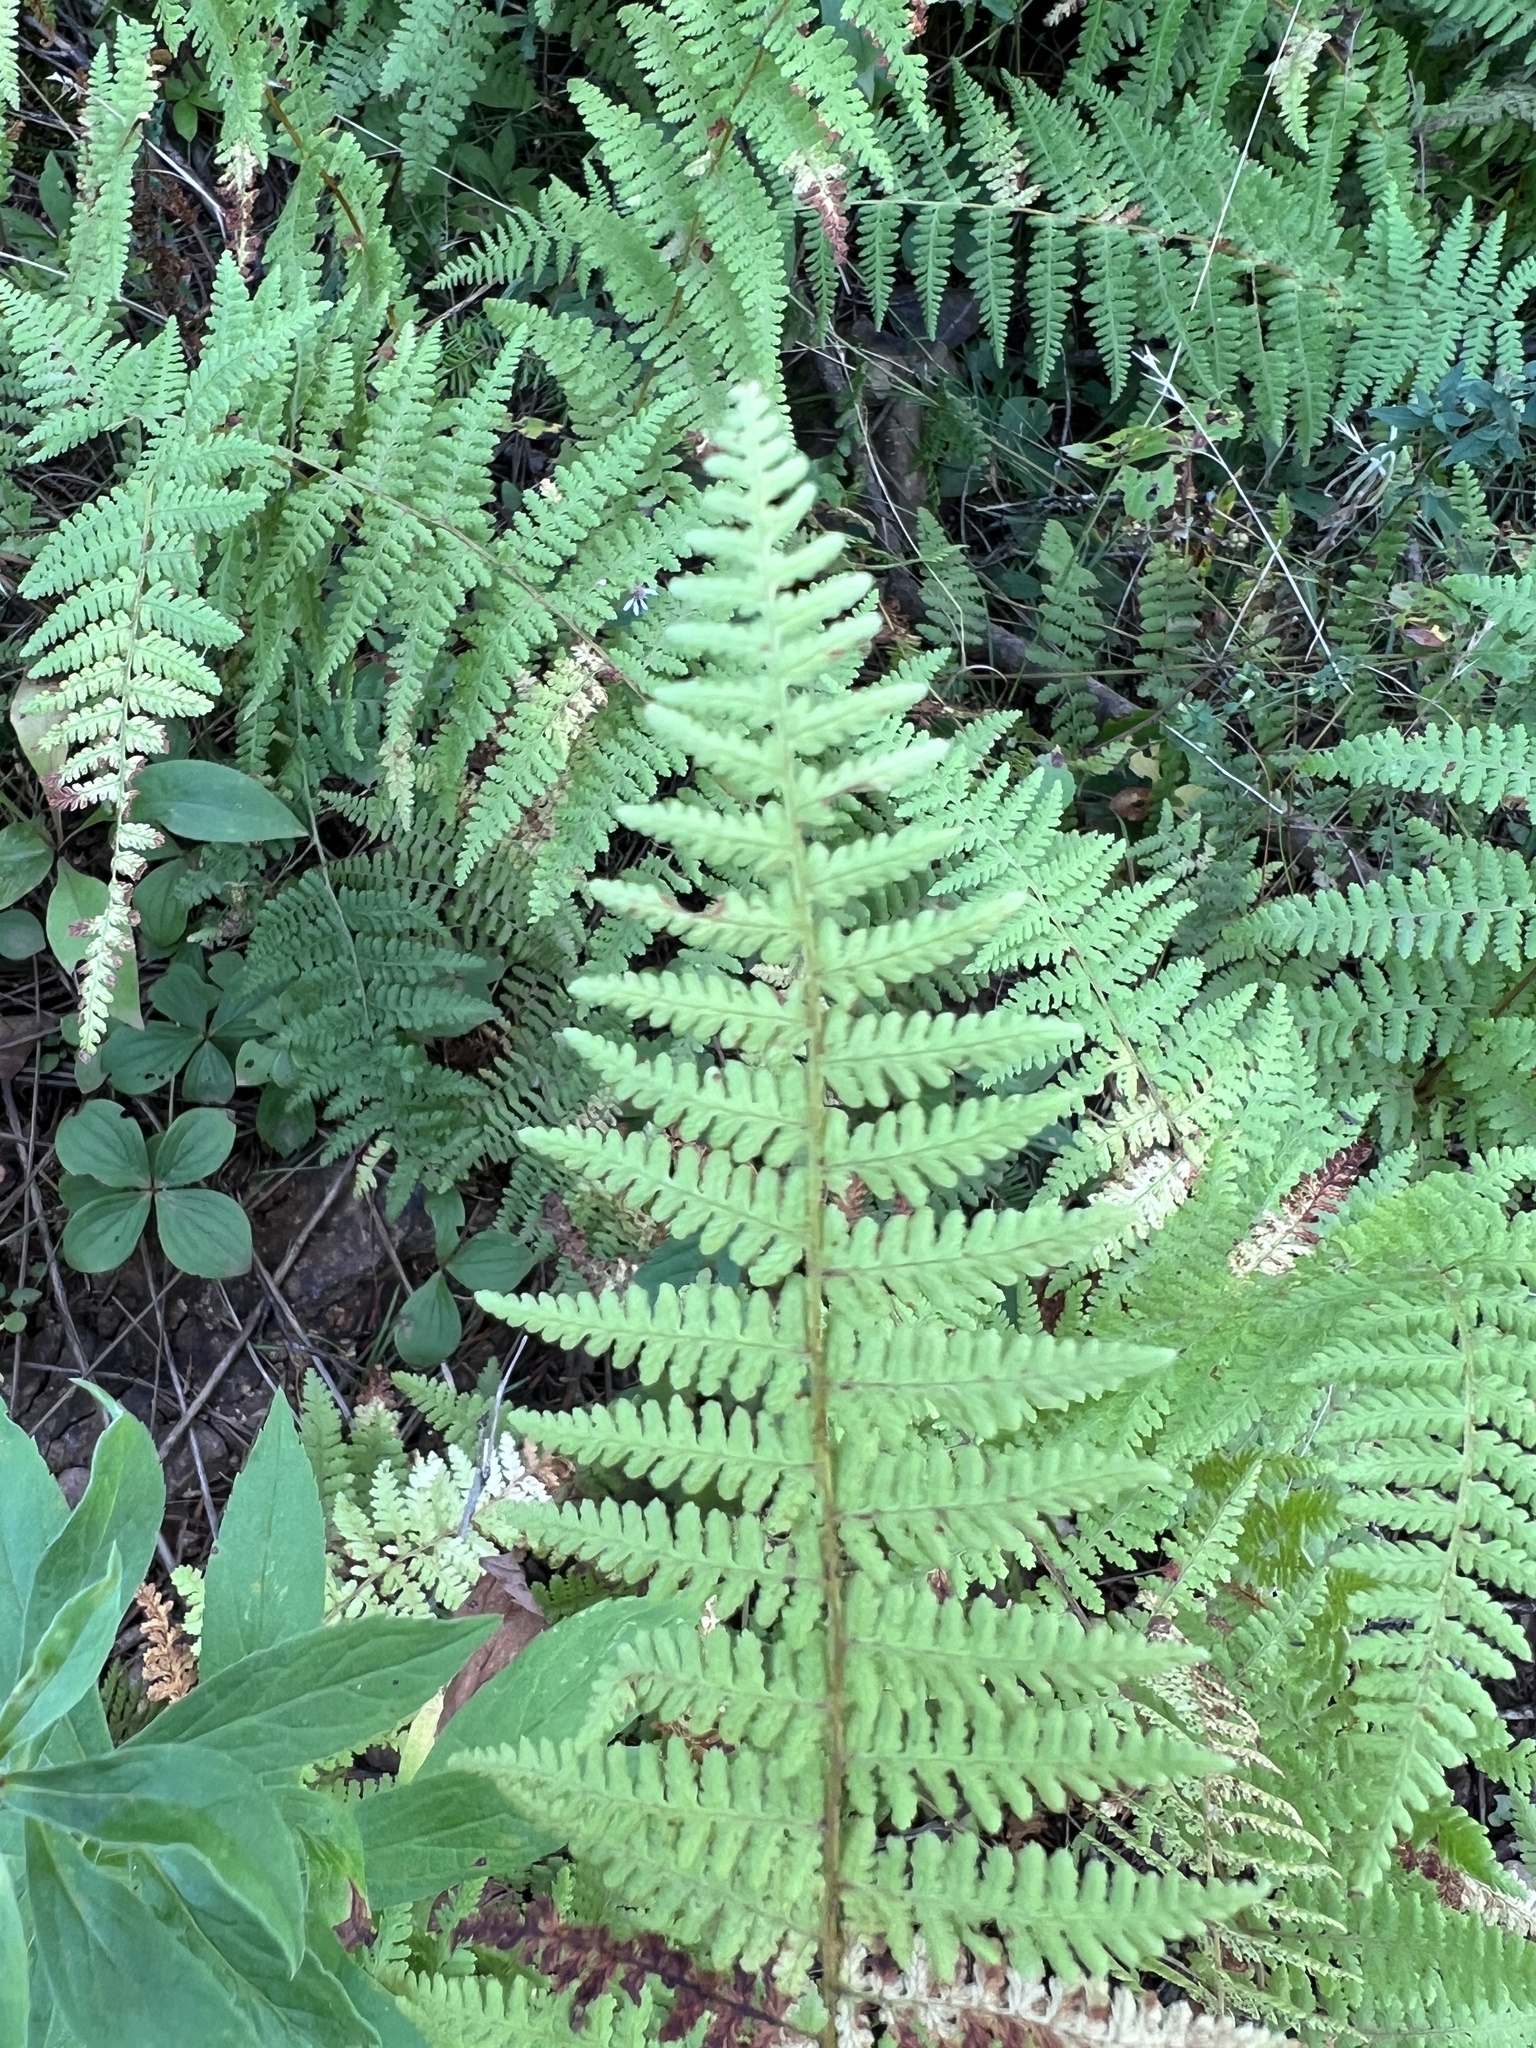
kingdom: Plantae
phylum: Tracheophyta
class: Polypodiopsida
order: Polypodiales
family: Dennstaedtiaceae
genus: Sitobolium
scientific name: Sitobolium punctilobum
